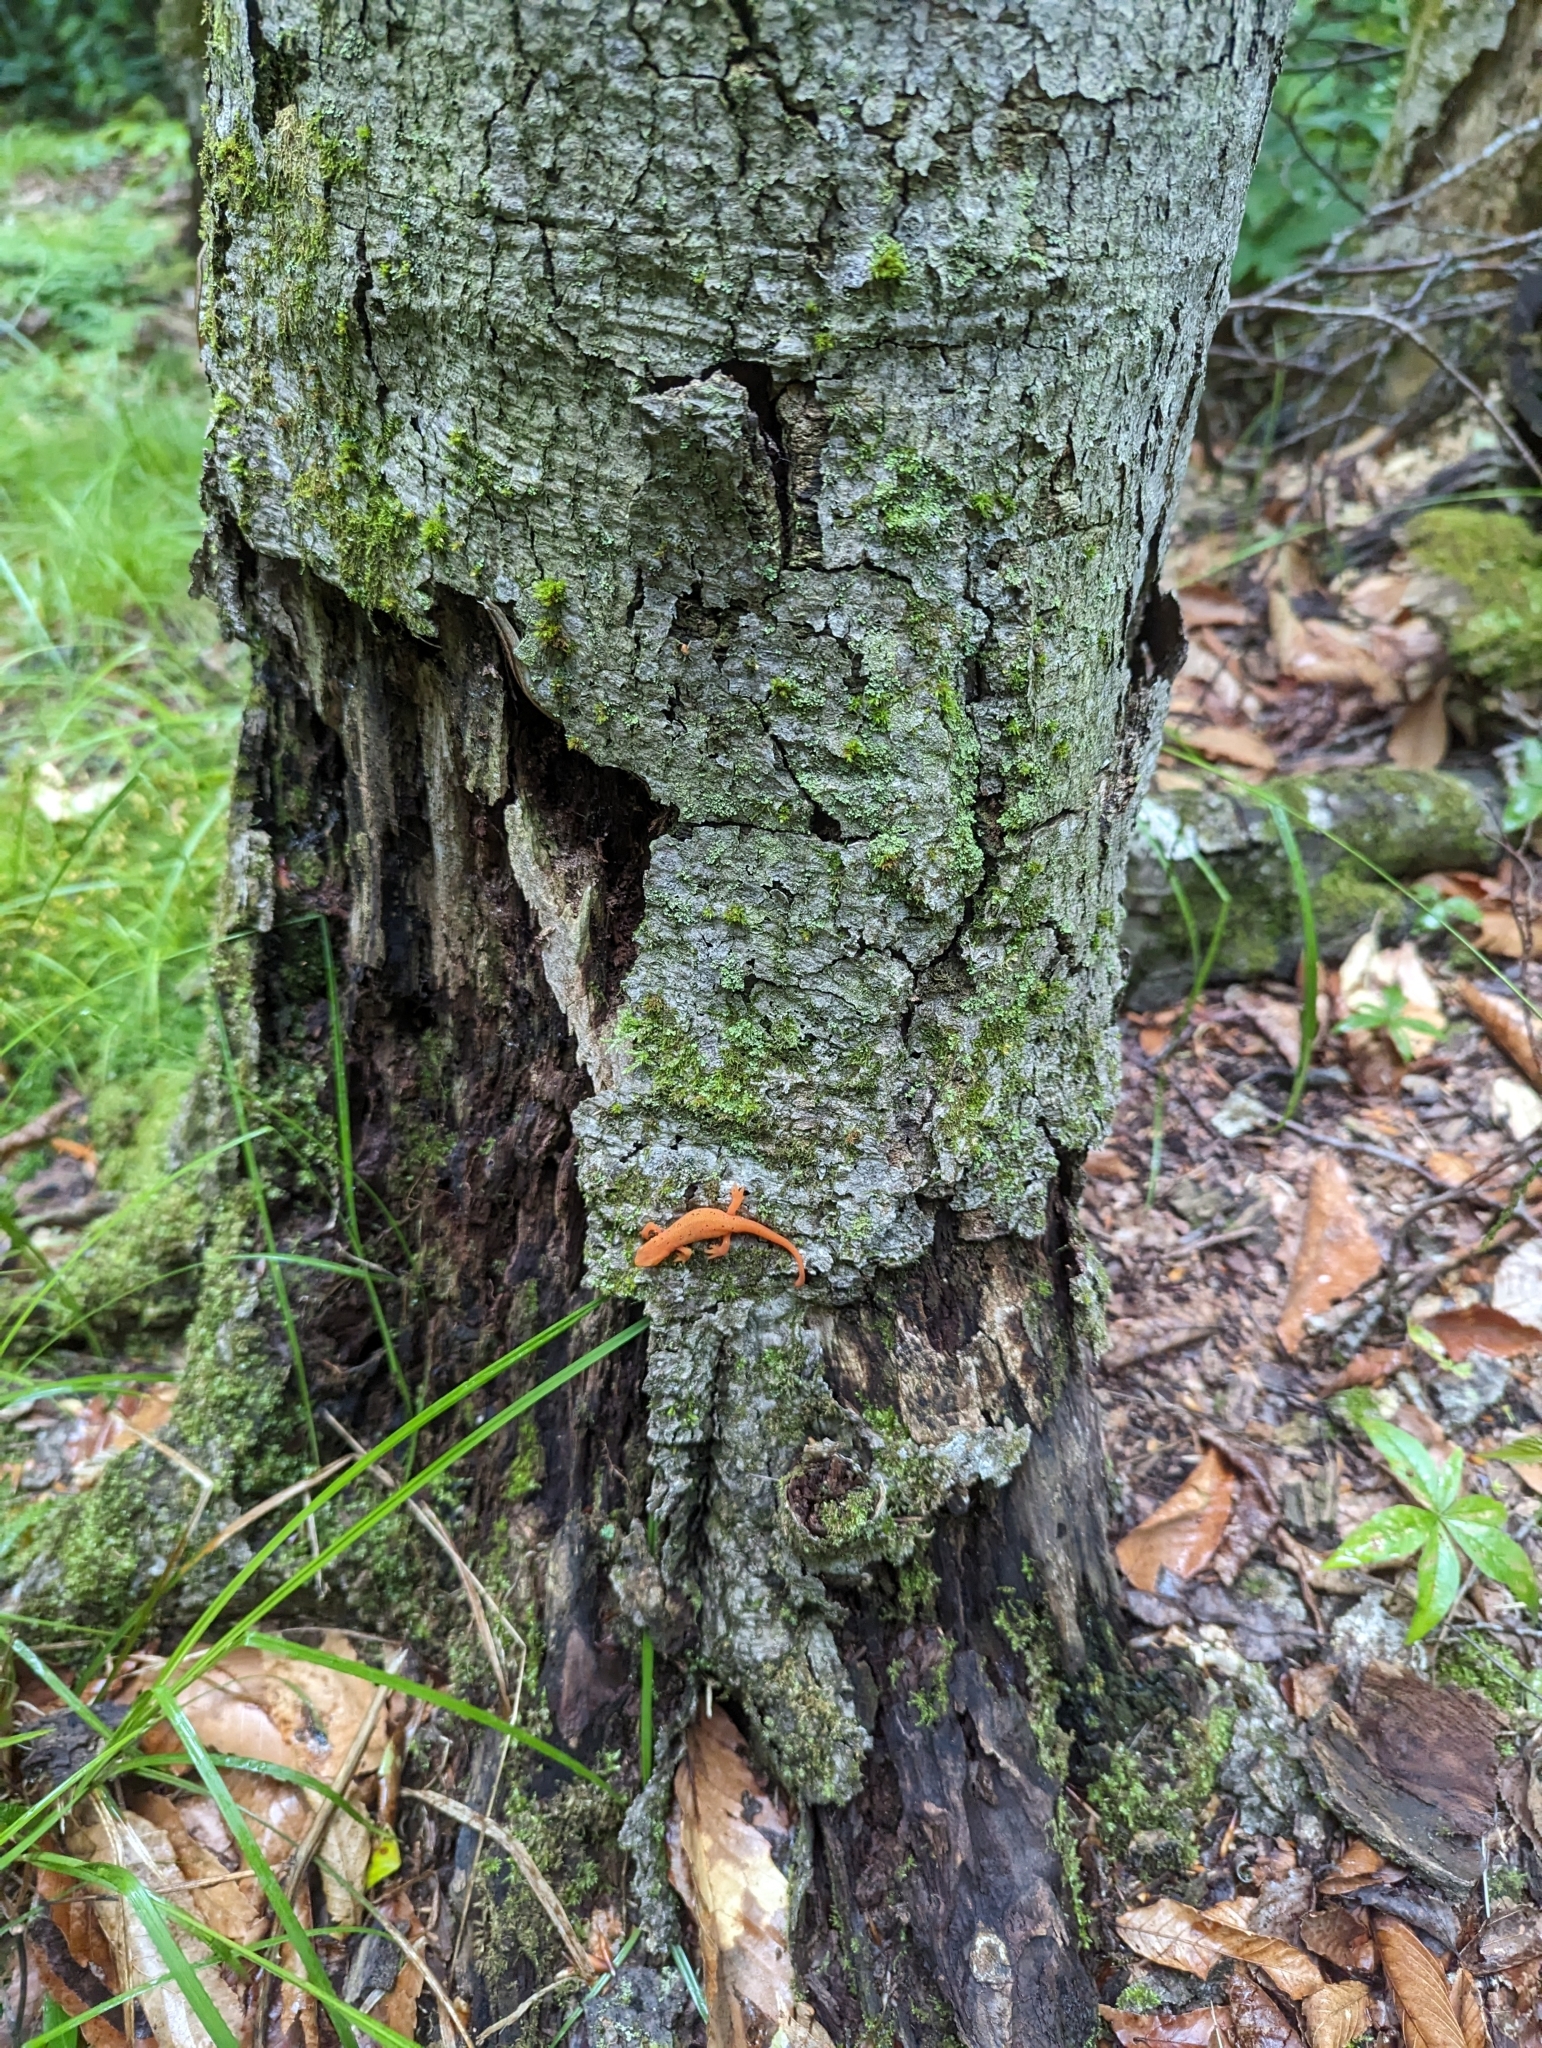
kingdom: Animalia
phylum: Chordata
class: Amphibia
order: Caudata
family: Salamandridae
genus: Notophthalmus
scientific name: Notophthalmus viridescens
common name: Eastern newt
